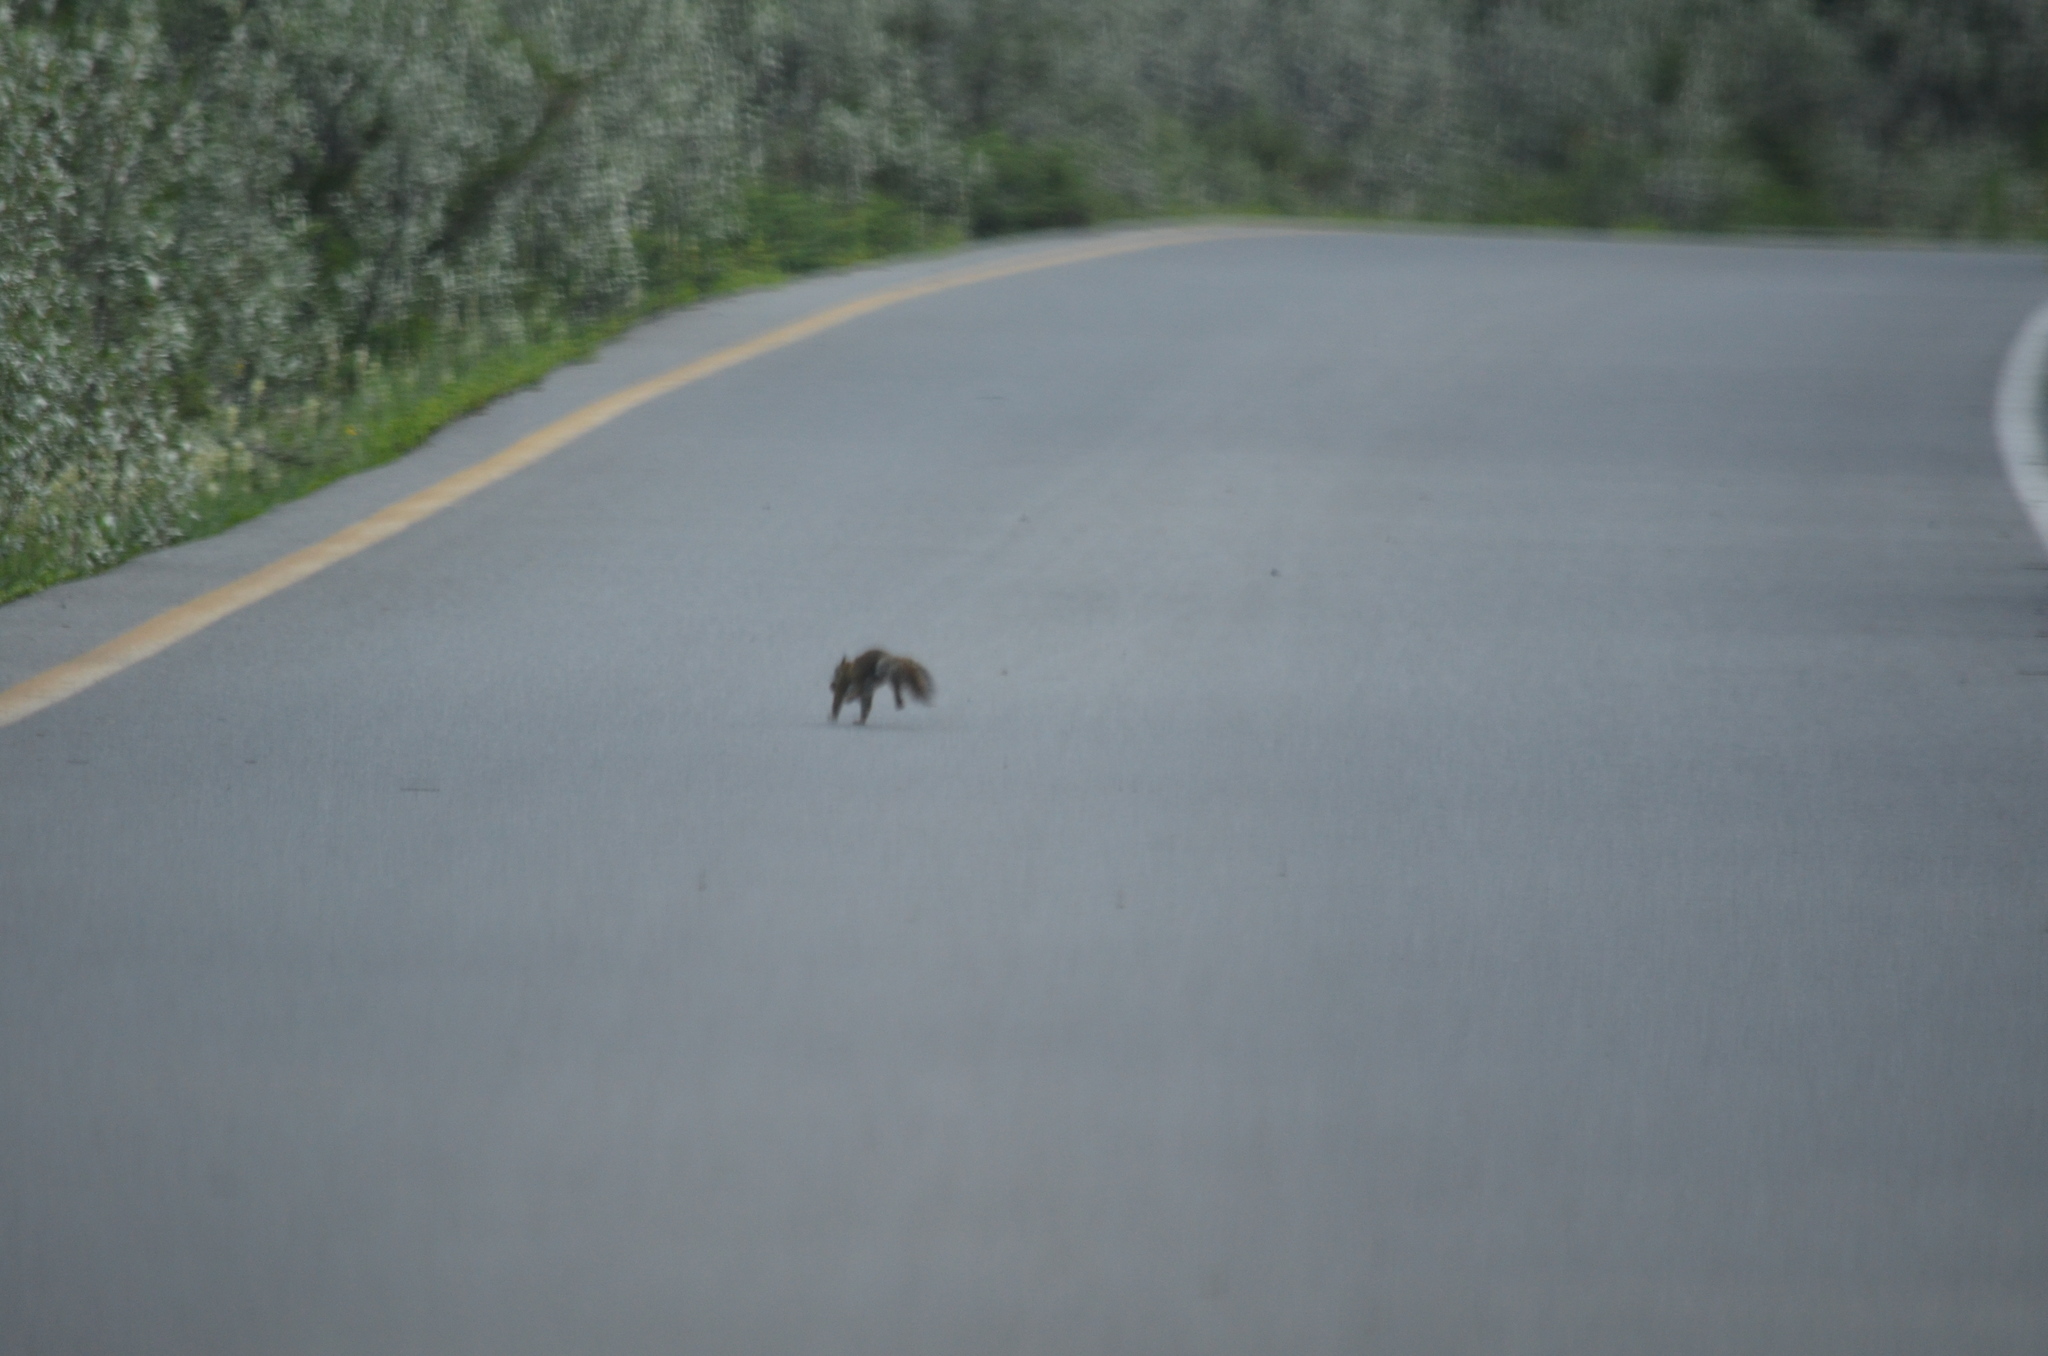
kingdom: Animalia
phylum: Chordata
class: Mammalia
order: Rodentia
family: Sciuridae
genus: Tamiasciurus
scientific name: Tamiasciurus hudsonicus
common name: Red squirrel
